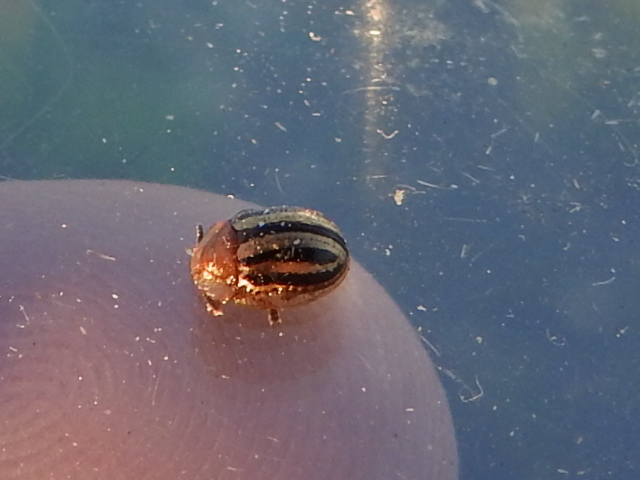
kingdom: Animalia
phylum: Arthropoda
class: Insecta
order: Coleoptera
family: Chrysomelidae
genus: Agroiconota
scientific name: Agroiconota bivittata
